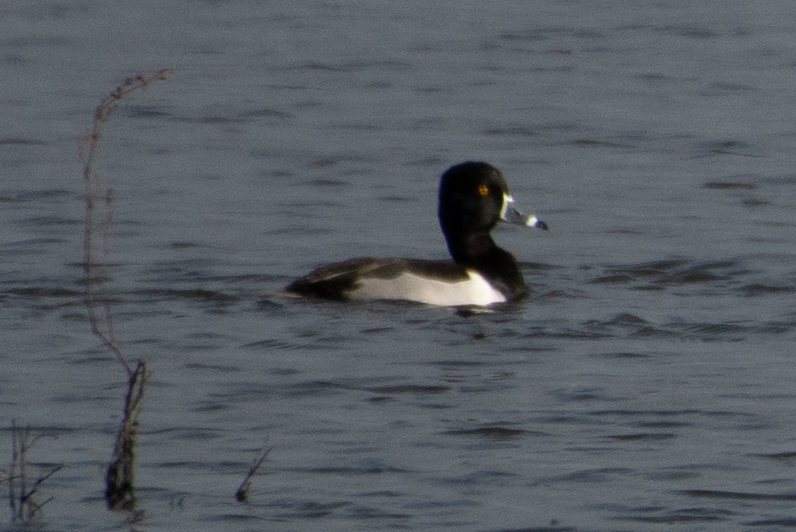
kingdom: Animalia
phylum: Chordata
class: Aves
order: Anseriformes
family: Anatidae
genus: Aythya
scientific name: Aythya collaris
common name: Ring-necked duck
